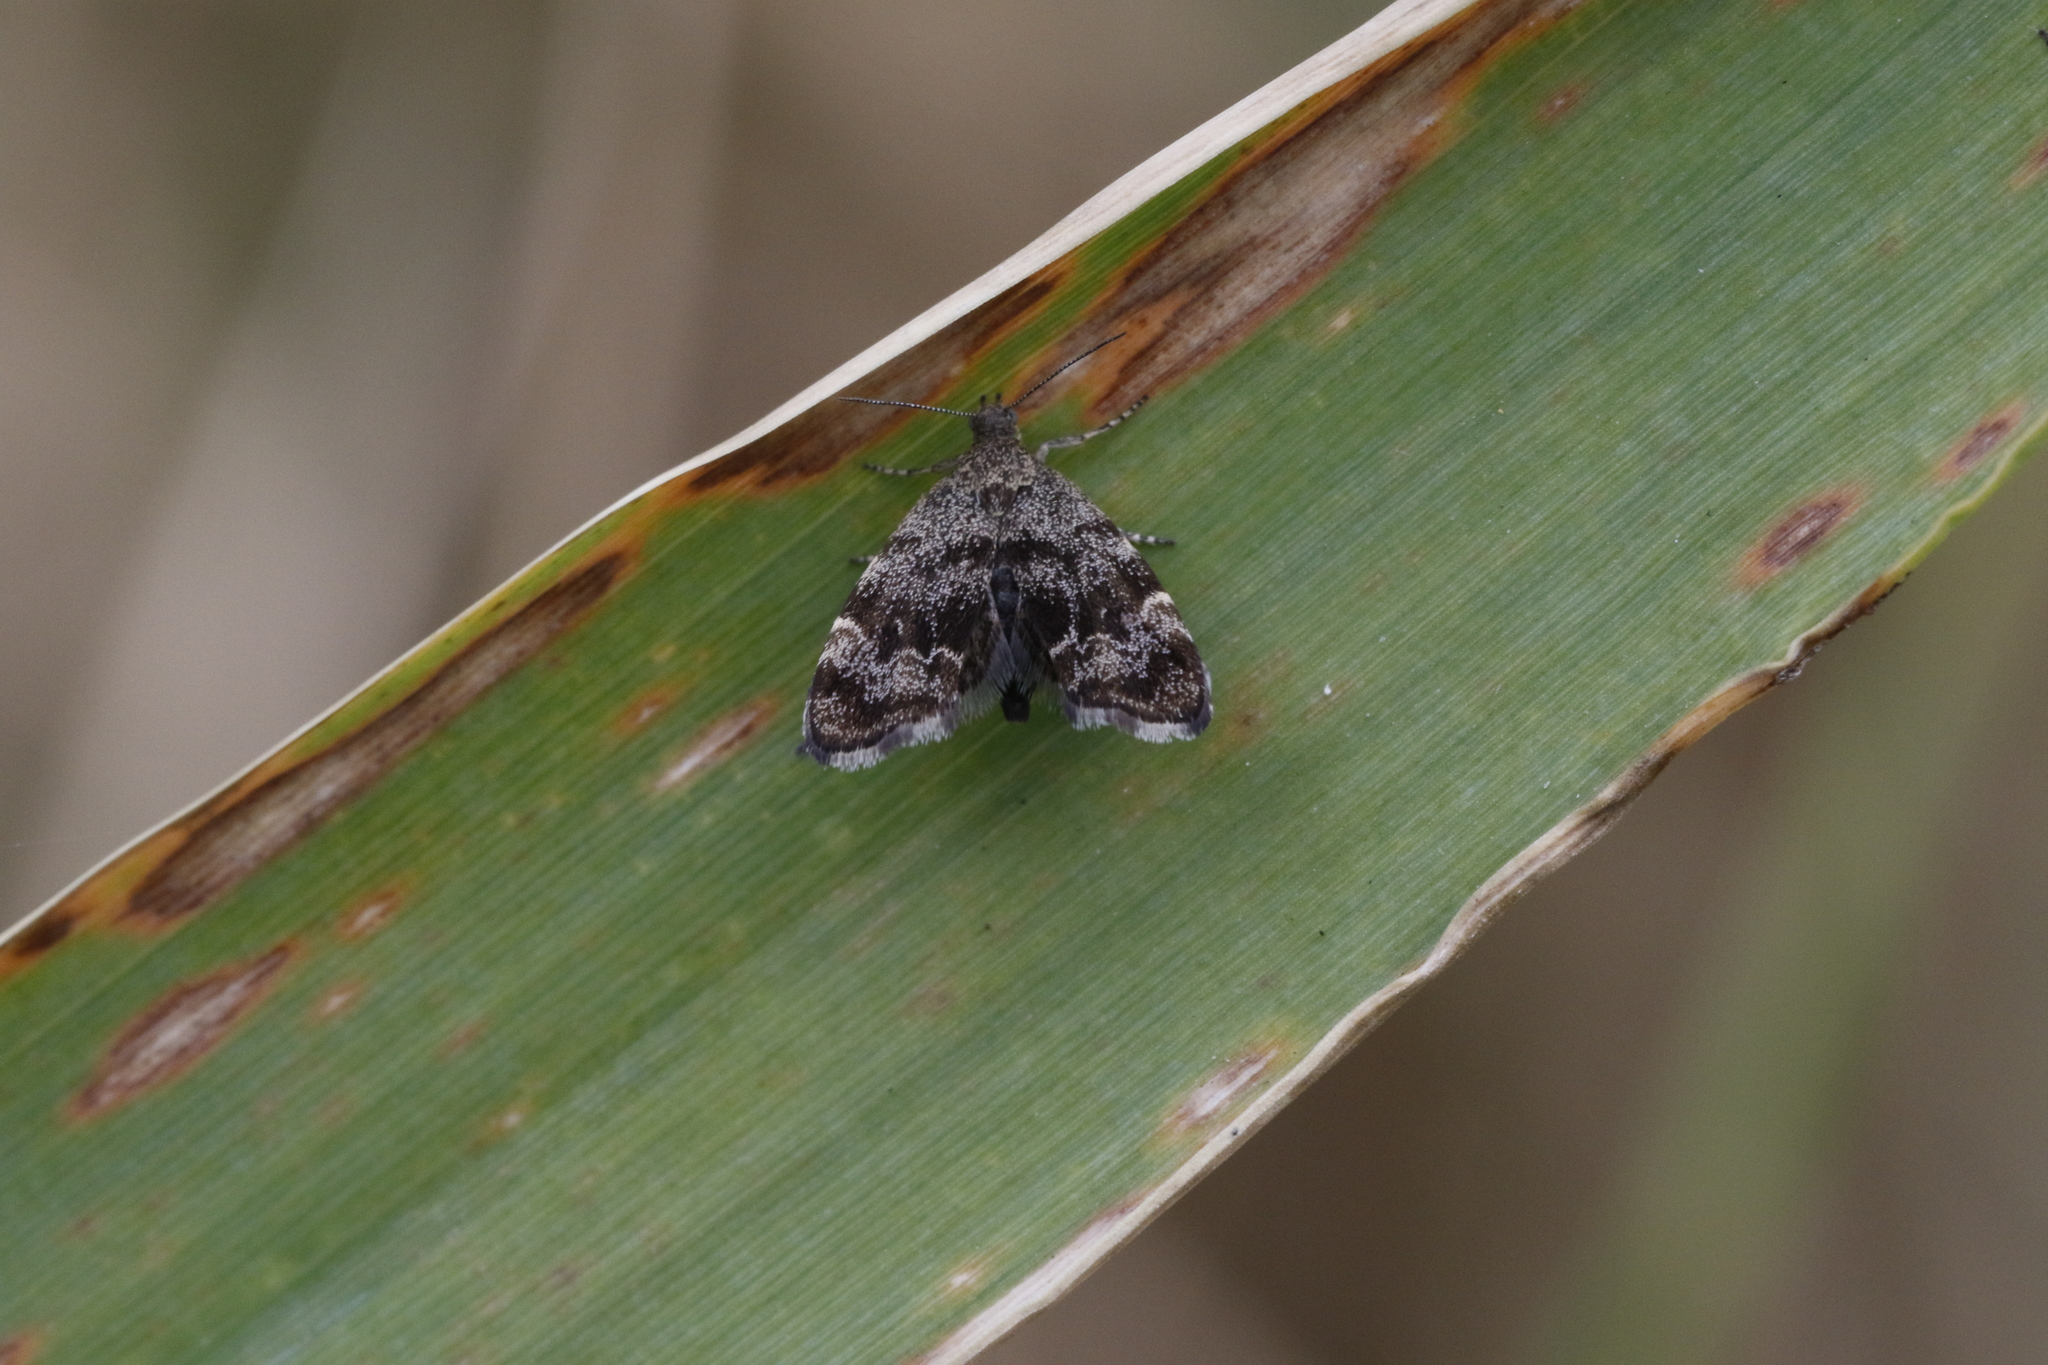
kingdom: Animalia
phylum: Arthropoda
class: Insecta
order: Lepidoptera
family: Choreutidae
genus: Anthophila
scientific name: Anthophila fabriciana
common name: Nettle-tap
